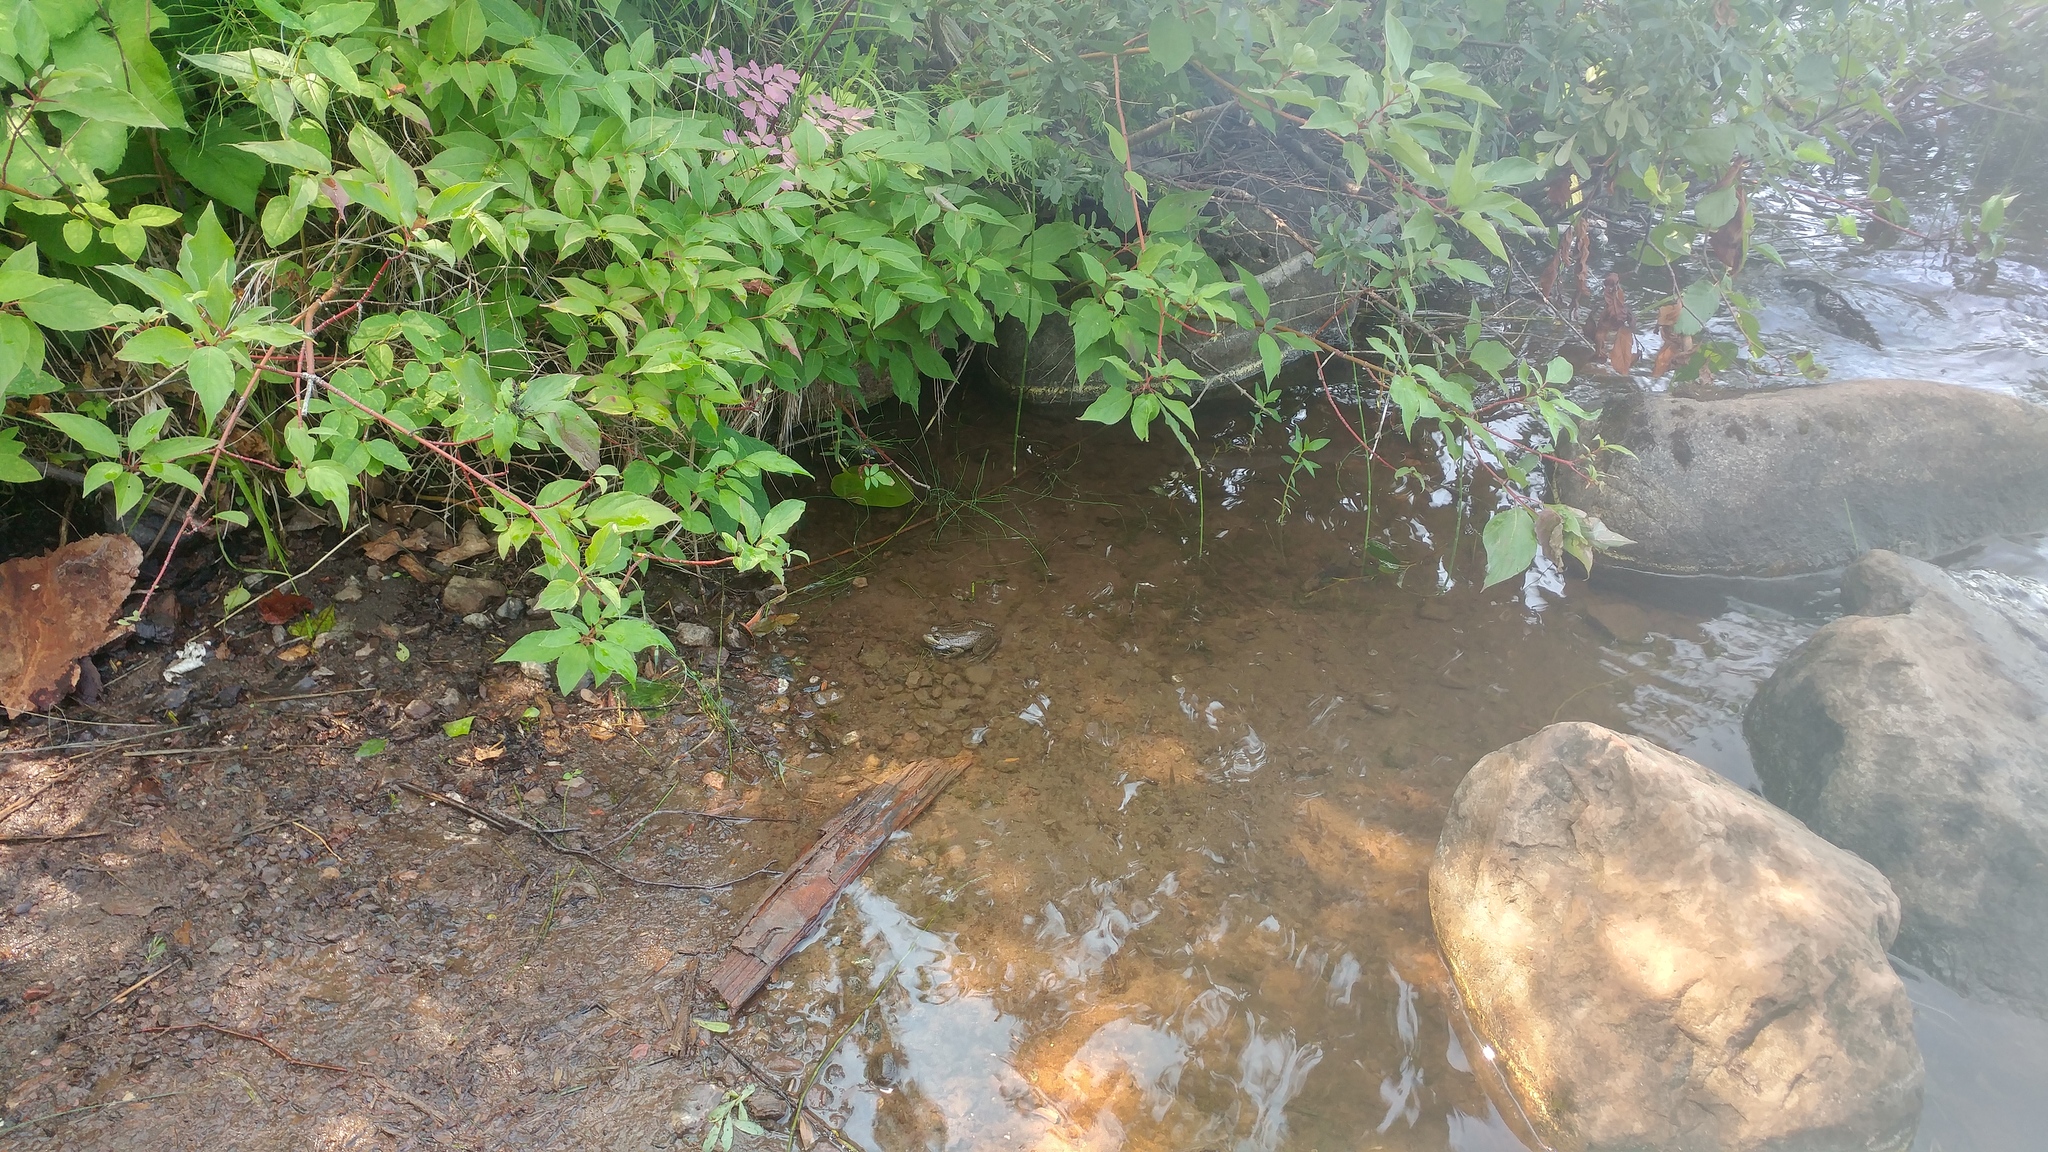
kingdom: Animalia
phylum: Chordata
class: Amphibia
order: Anura
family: Ranidae
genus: Lithobates
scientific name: Lithobates clamitans
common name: Green frog
